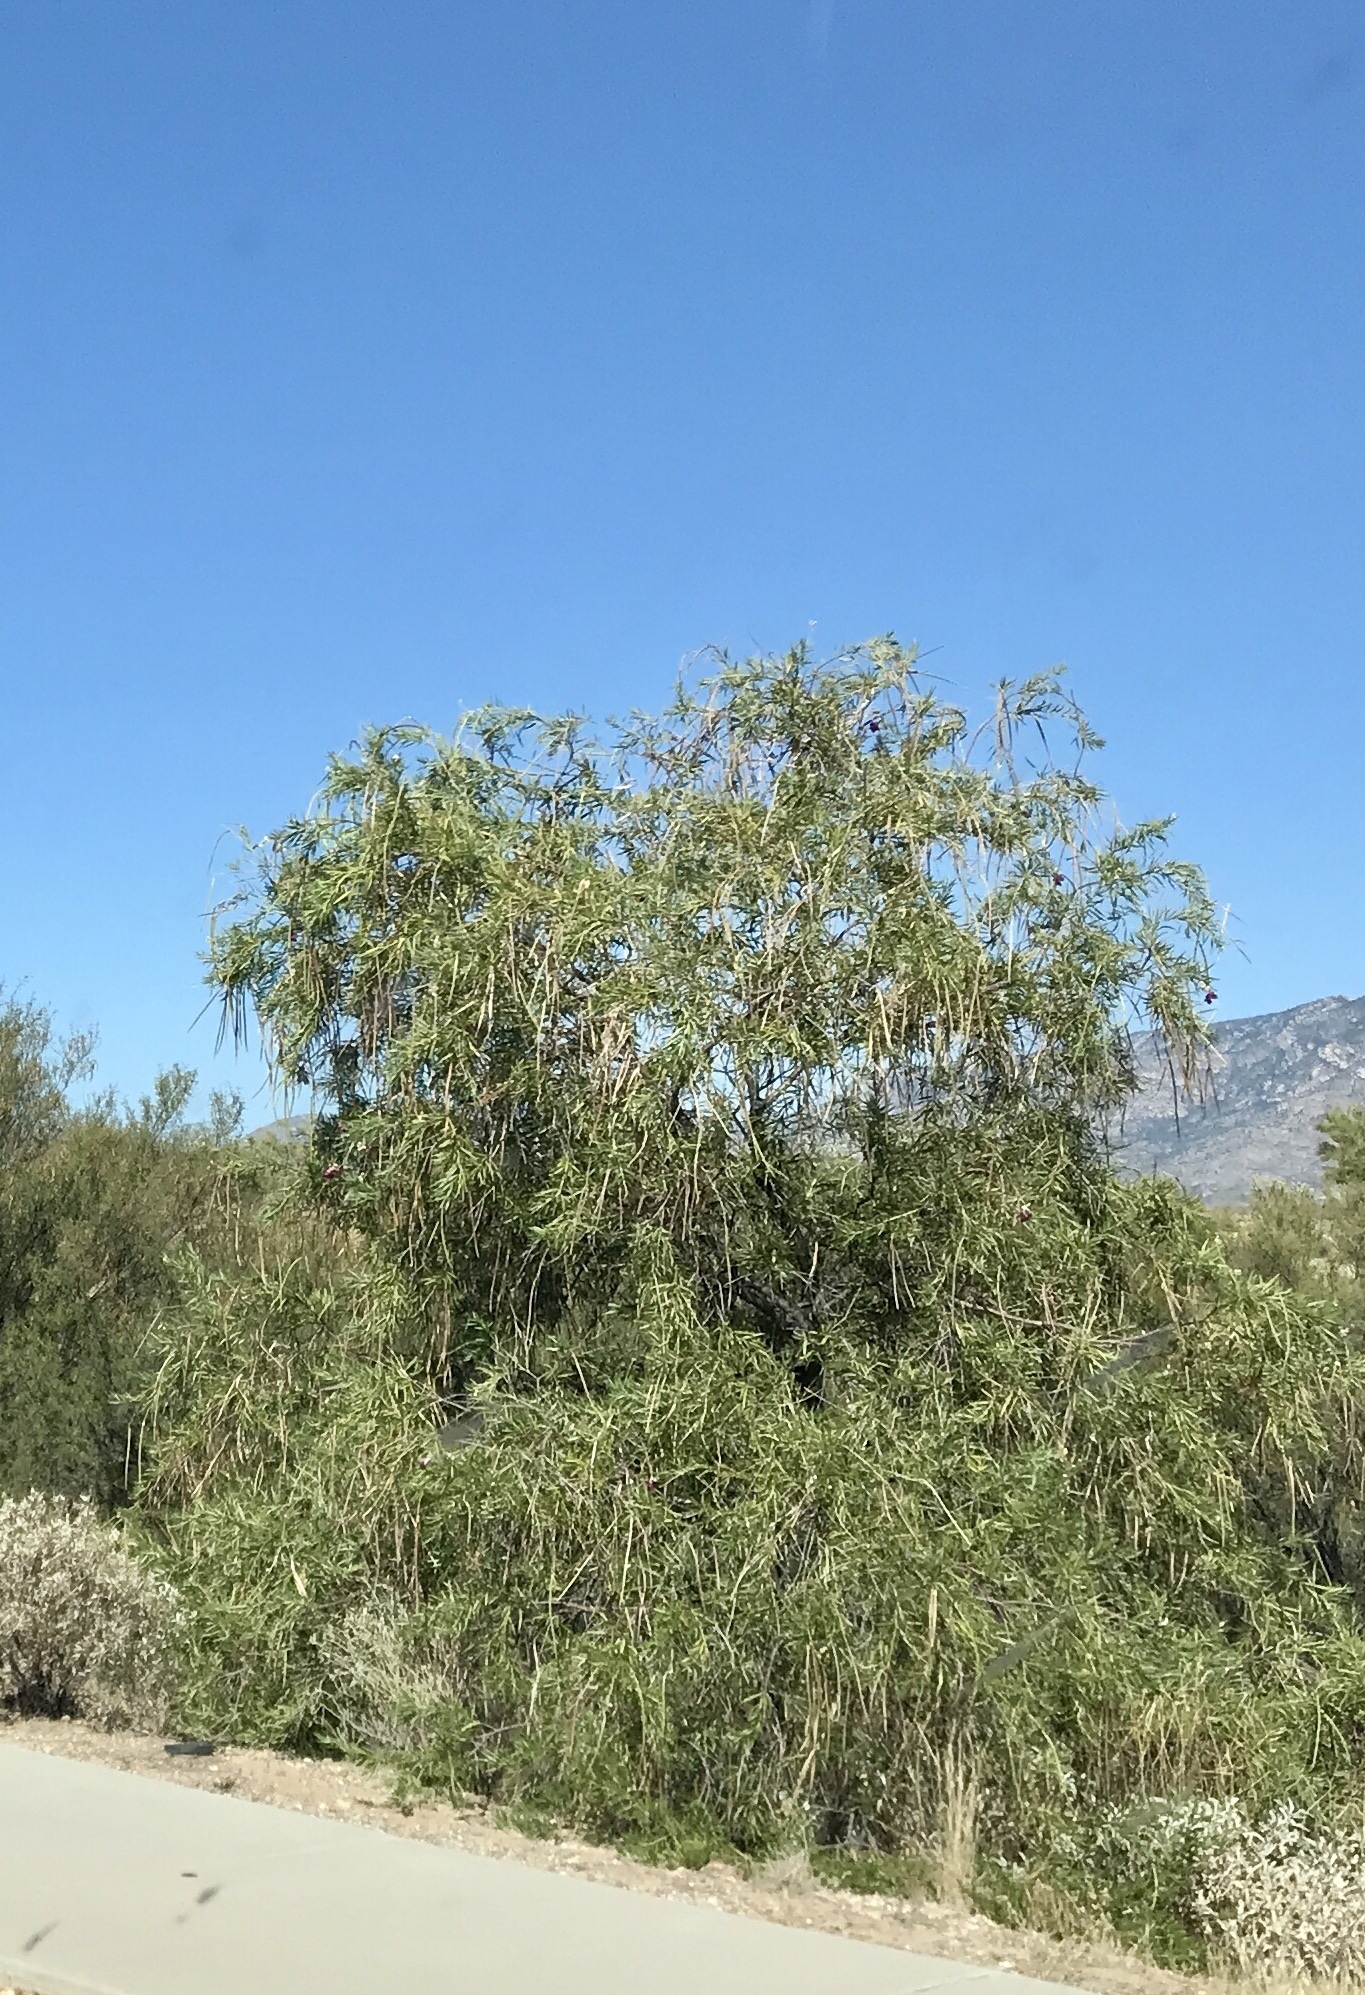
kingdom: Plantae
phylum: Tracheophyta
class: Magnoliopsida
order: Lamiales
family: Bignoniaceae
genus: Chilopsis
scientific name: Chilopsis linearis
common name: Desert-willow
